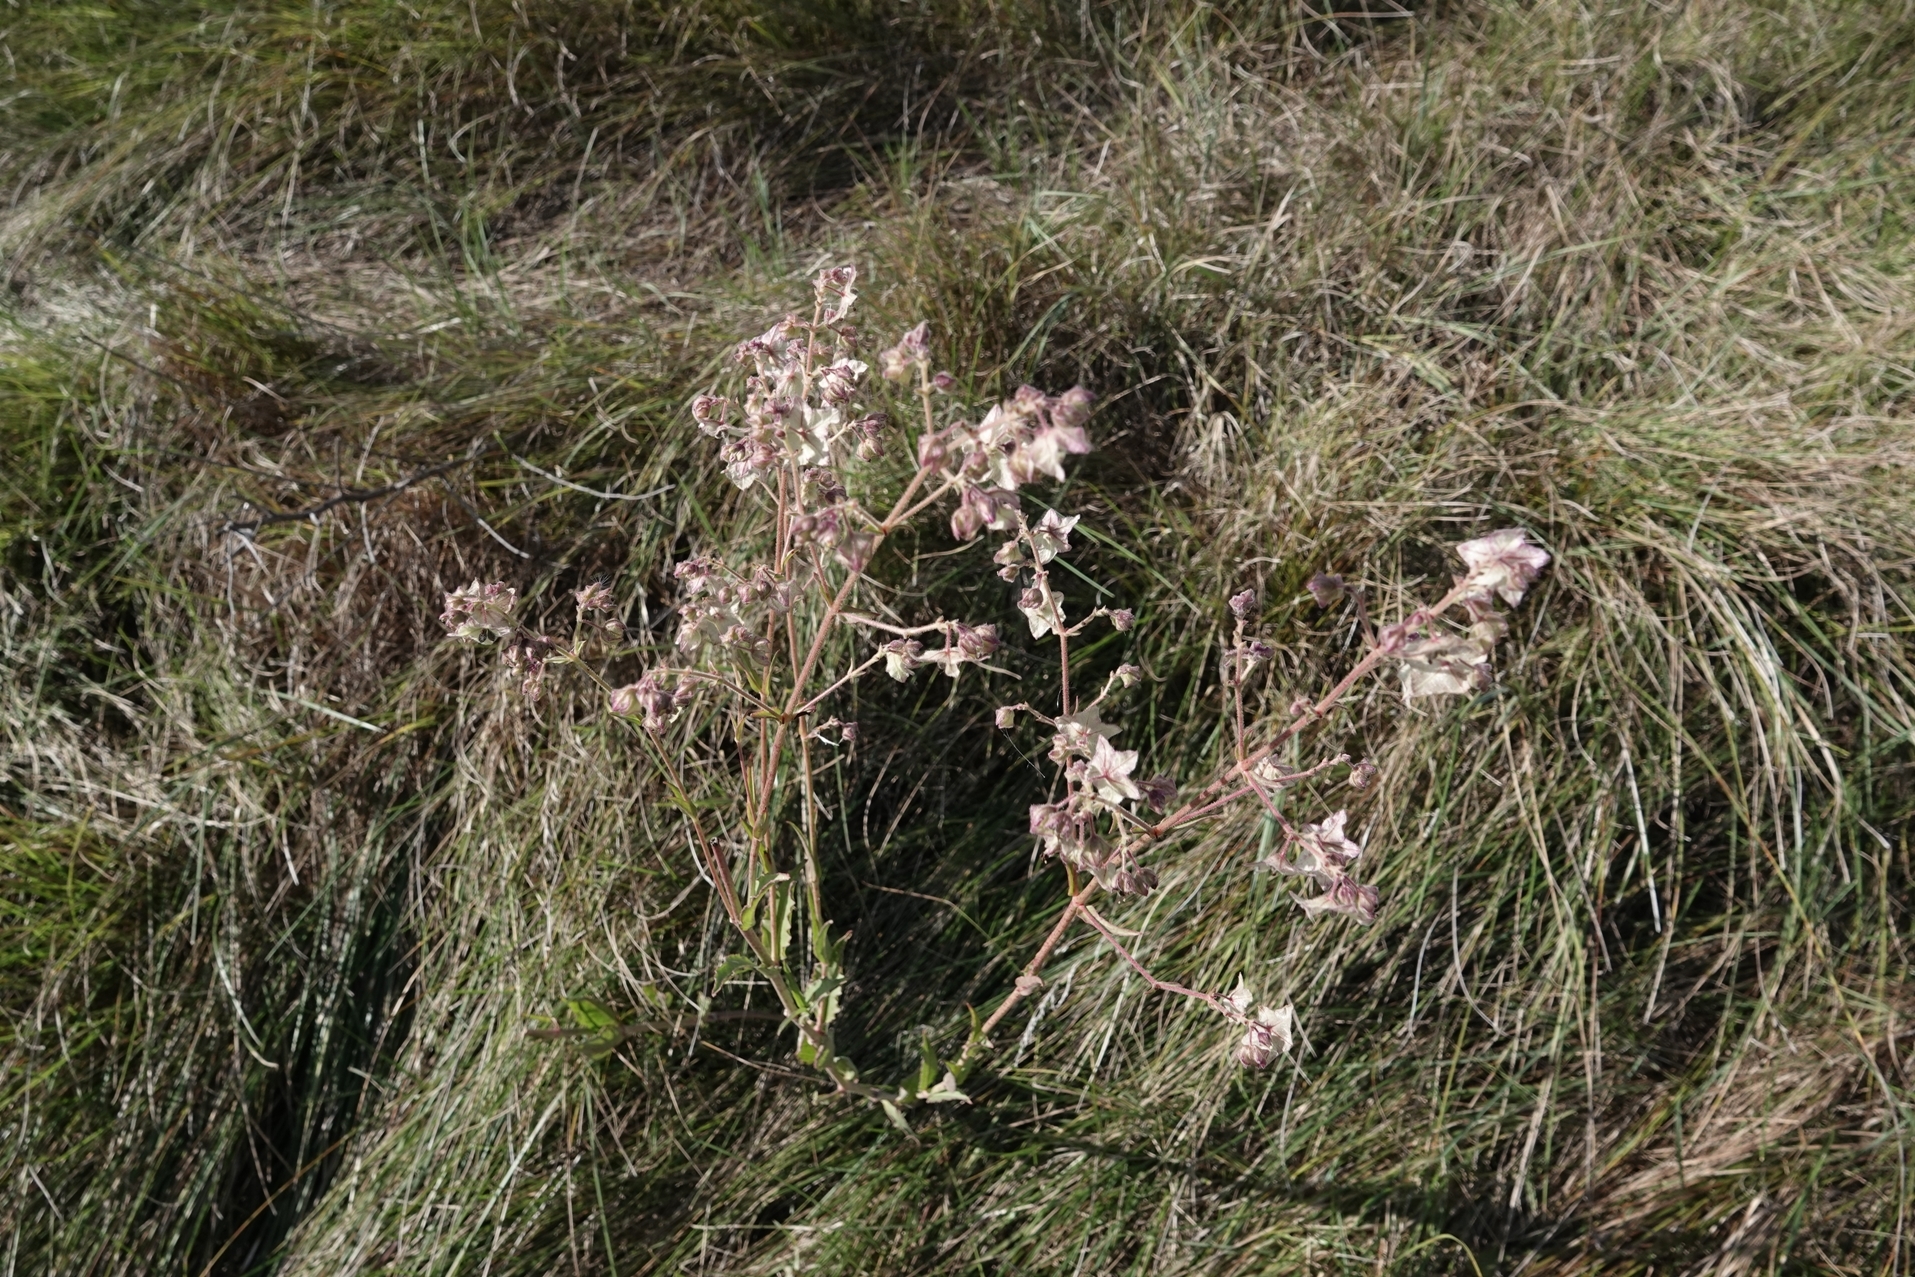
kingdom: Plantae
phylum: Tracheophyta
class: Magnoliopsida
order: Caryophyllales
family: Nyctaginaceae
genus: Mirabilis
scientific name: Mirabilis nyctaginea
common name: Umbrella wort
